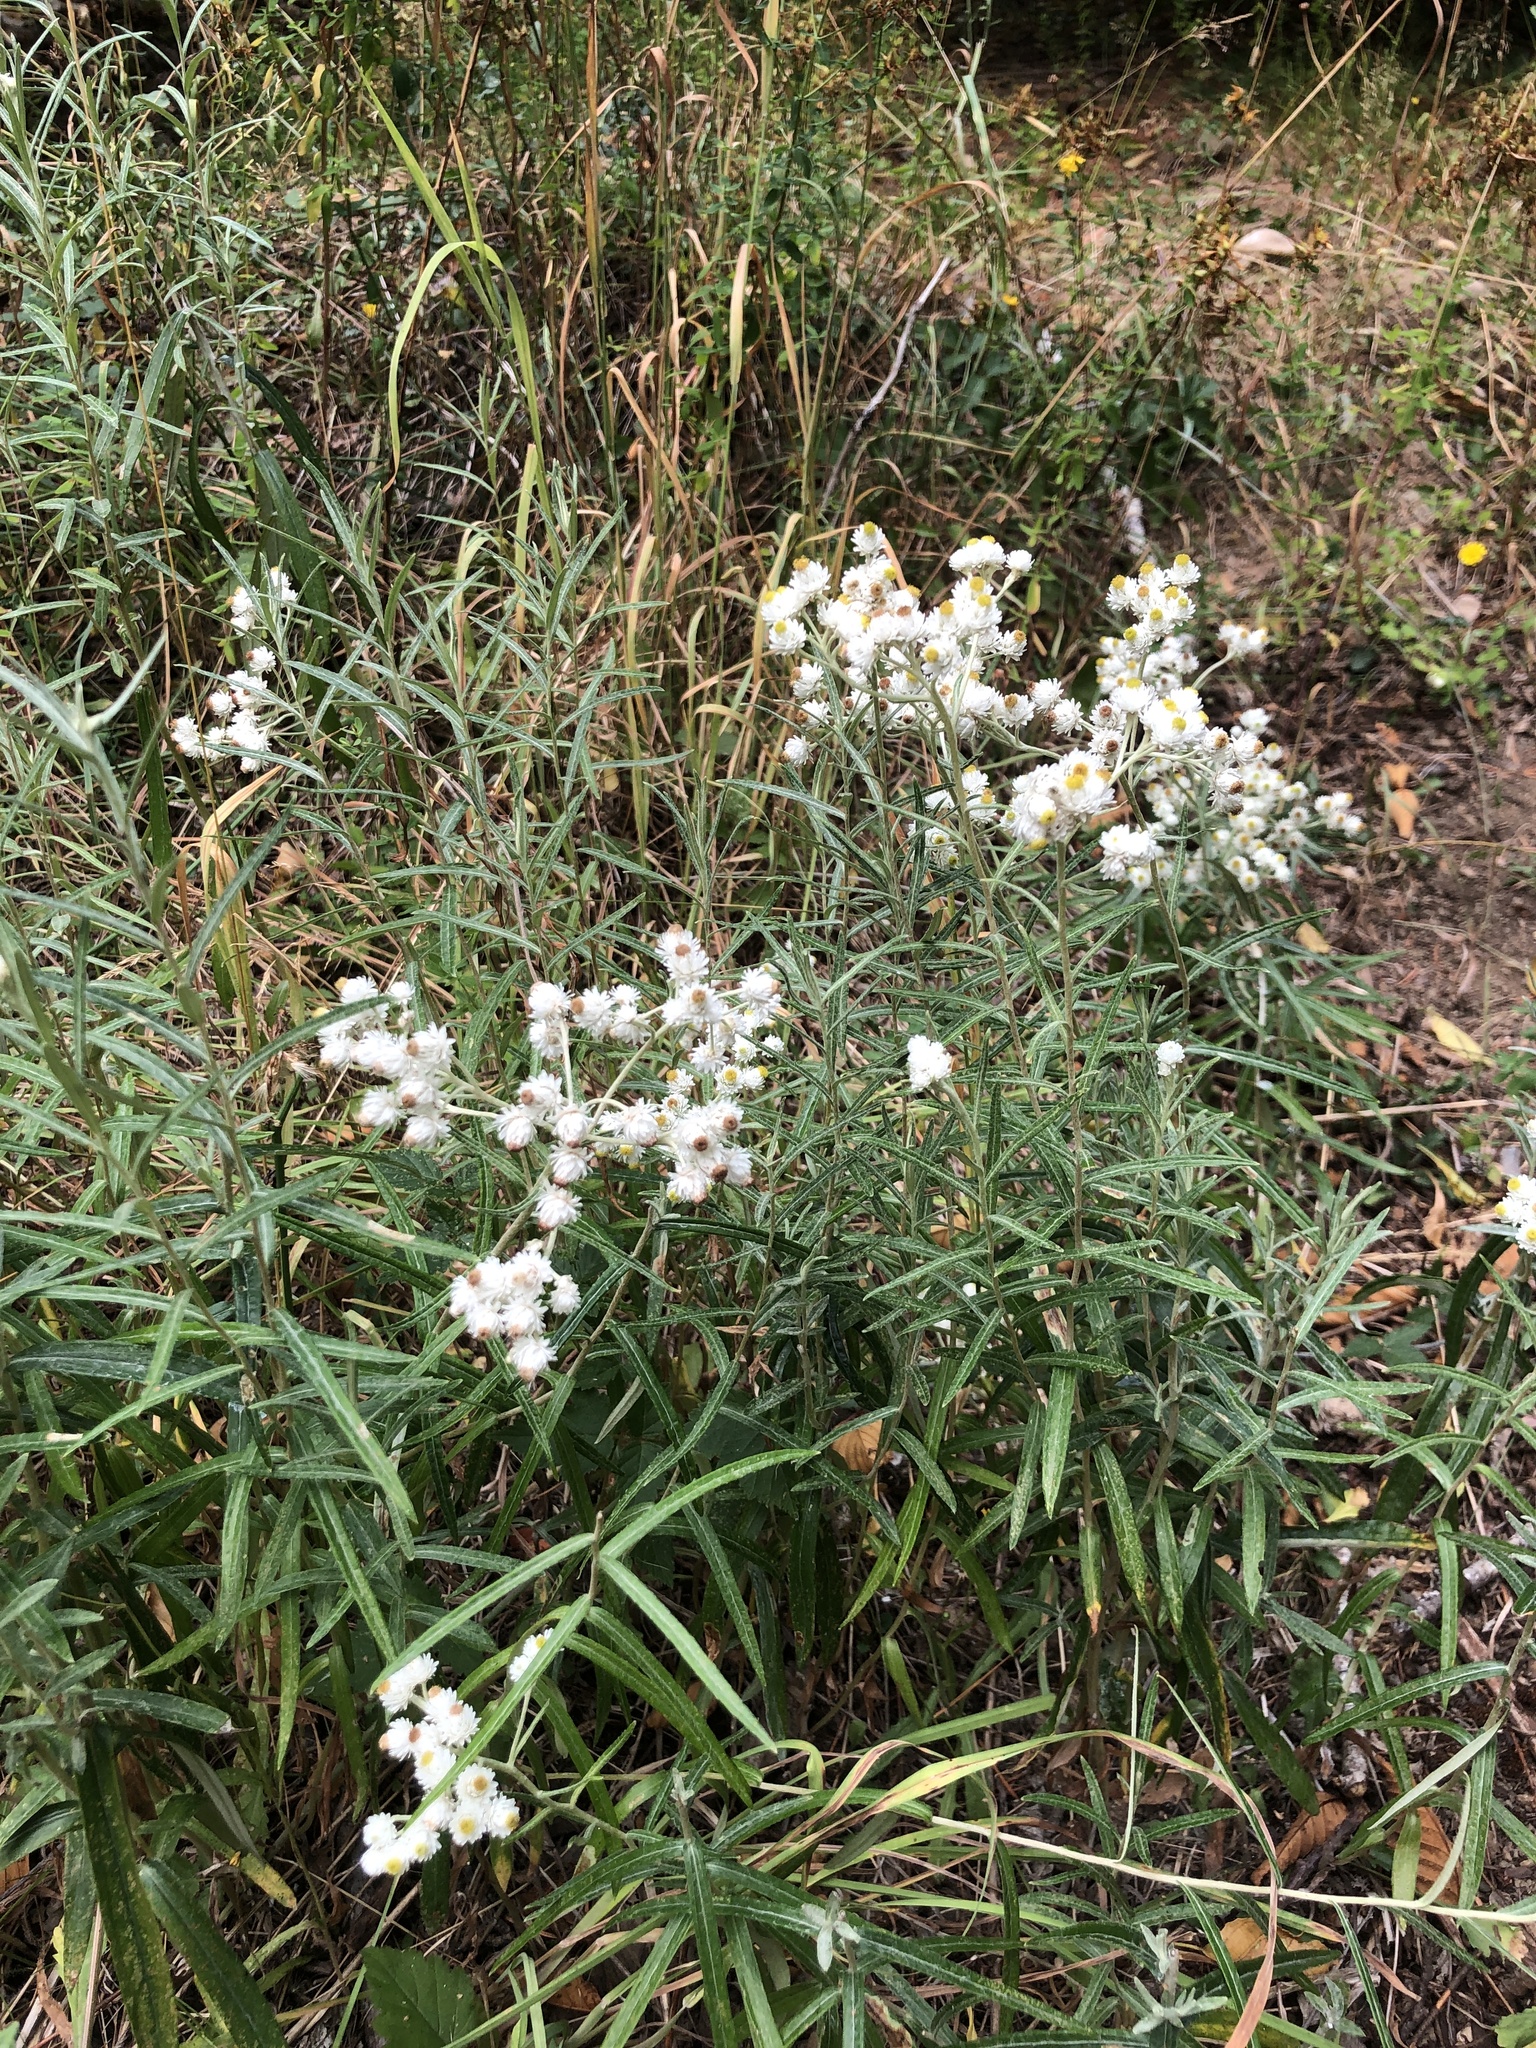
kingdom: Plantae
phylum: Tracheophyta
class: Magnoliopsida
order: Asterales
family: Asteraceae
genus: Anaphalis
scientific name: Anaphalis margaritacea
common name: Pearly everlasting
